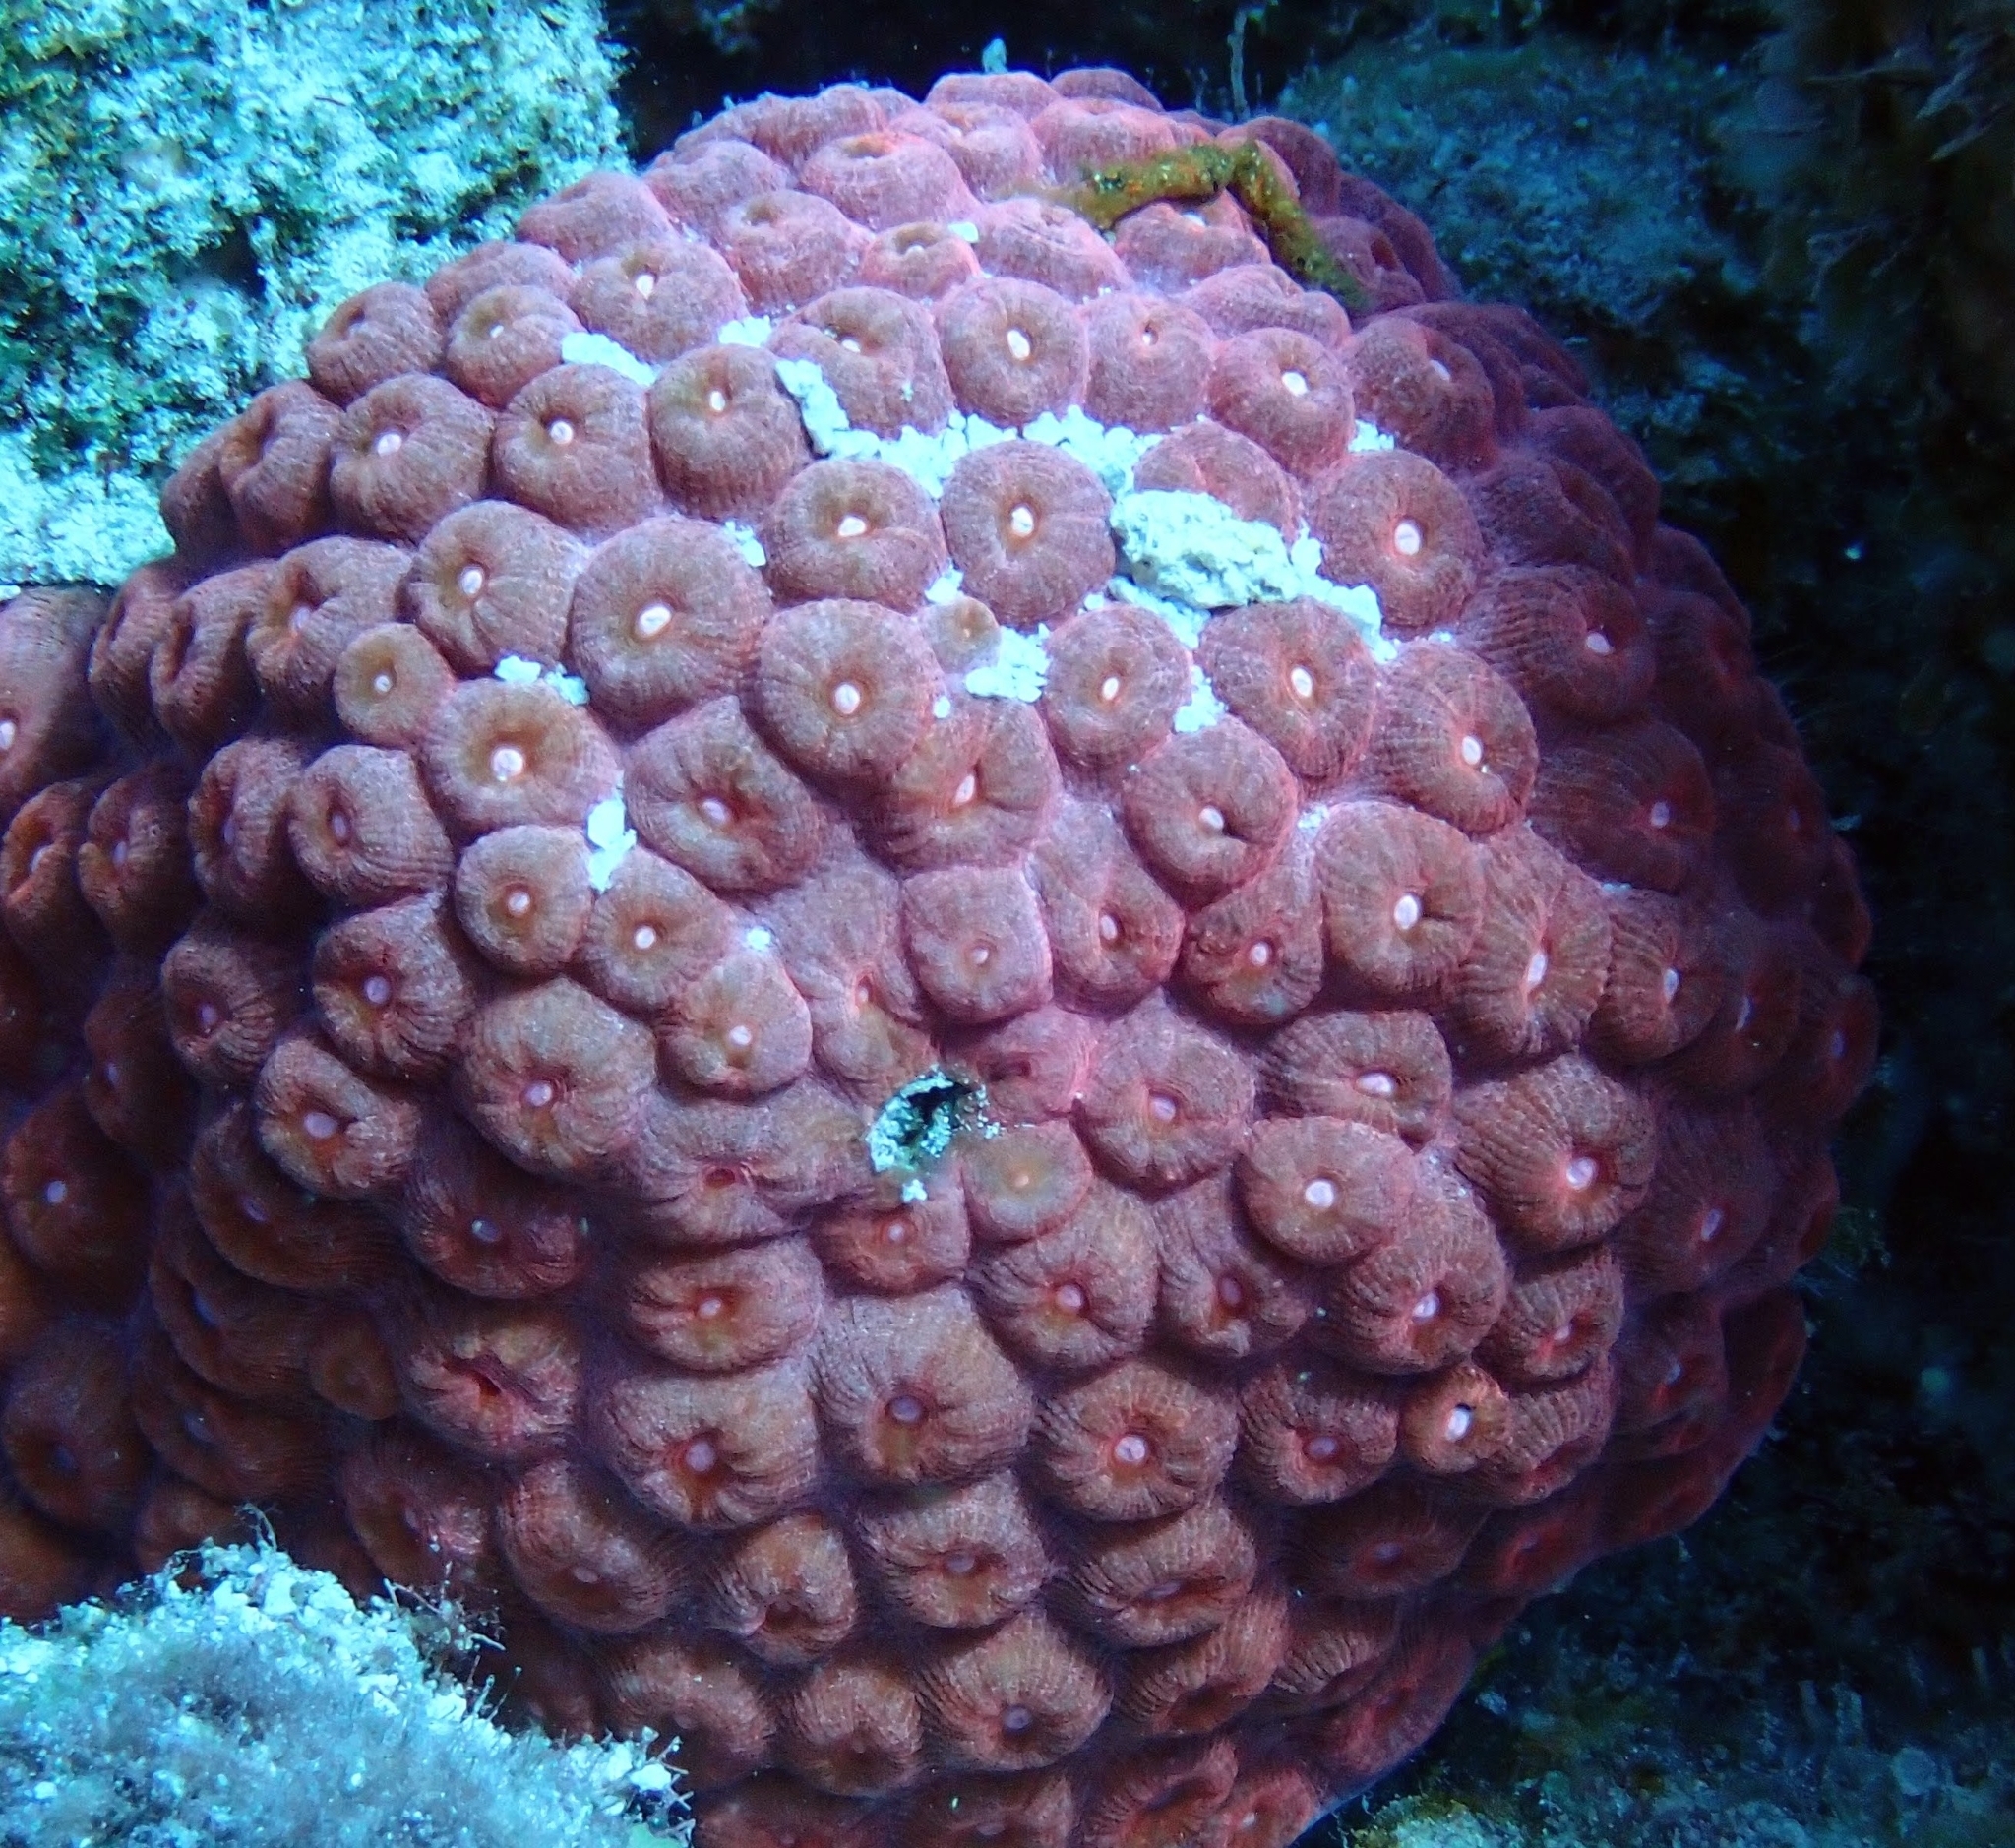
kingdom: Animalia
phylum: Cnidaria
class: Anthozoa
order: Scleractinia
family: Montastraeidae
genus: Montastraea
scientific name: Montastraea cavernosa
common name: Great star coral
